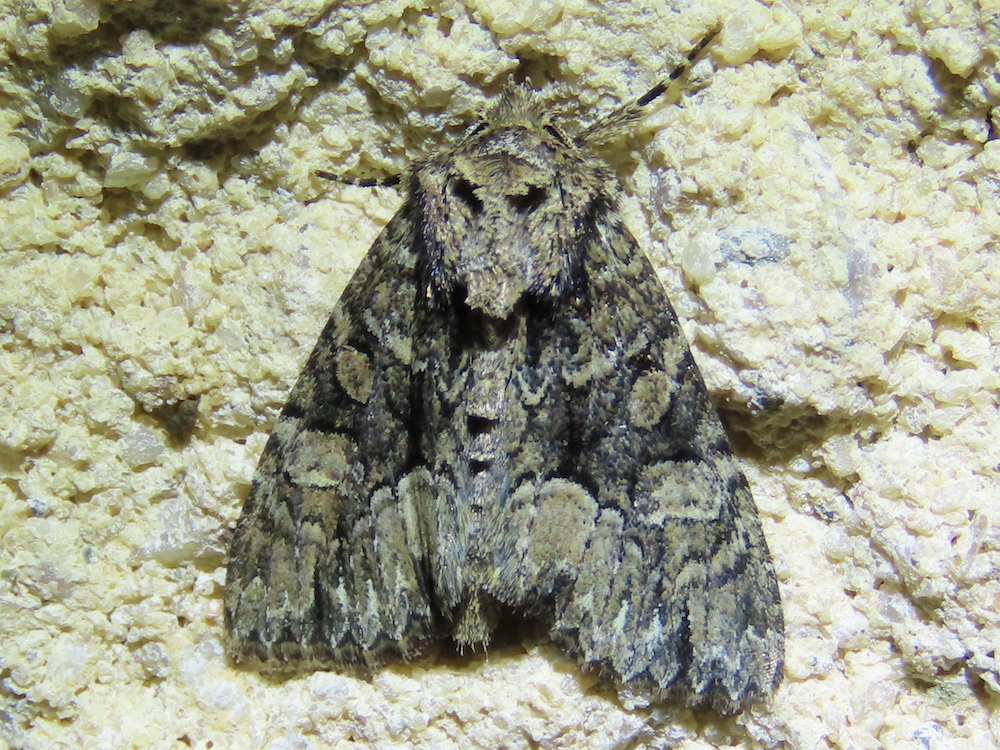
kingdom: Animalia
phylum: Arthropoda
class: Insecta
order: Lepidoptera
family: Noctuidae
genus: Platypolia
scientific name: Platypolia mactata
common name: Adorable brocade moth
